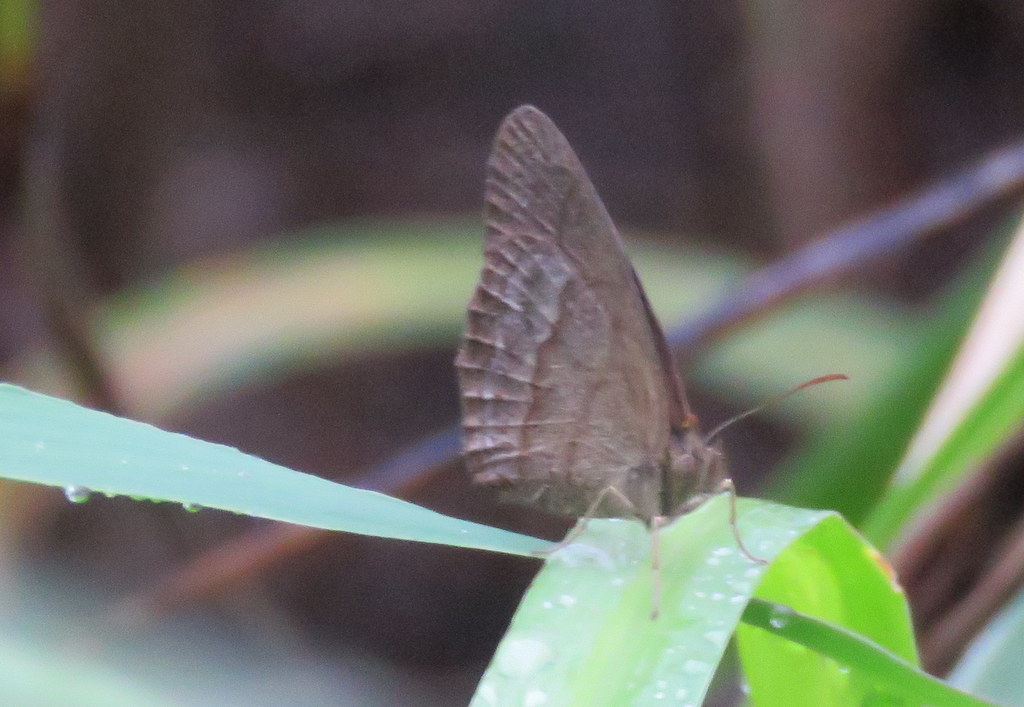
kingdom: Animalia
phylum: Arthropoda
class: Insecta
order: Lepidoptera
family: Nymphalidae
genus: Yphthimoides
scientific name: Yphthimoides celmis
